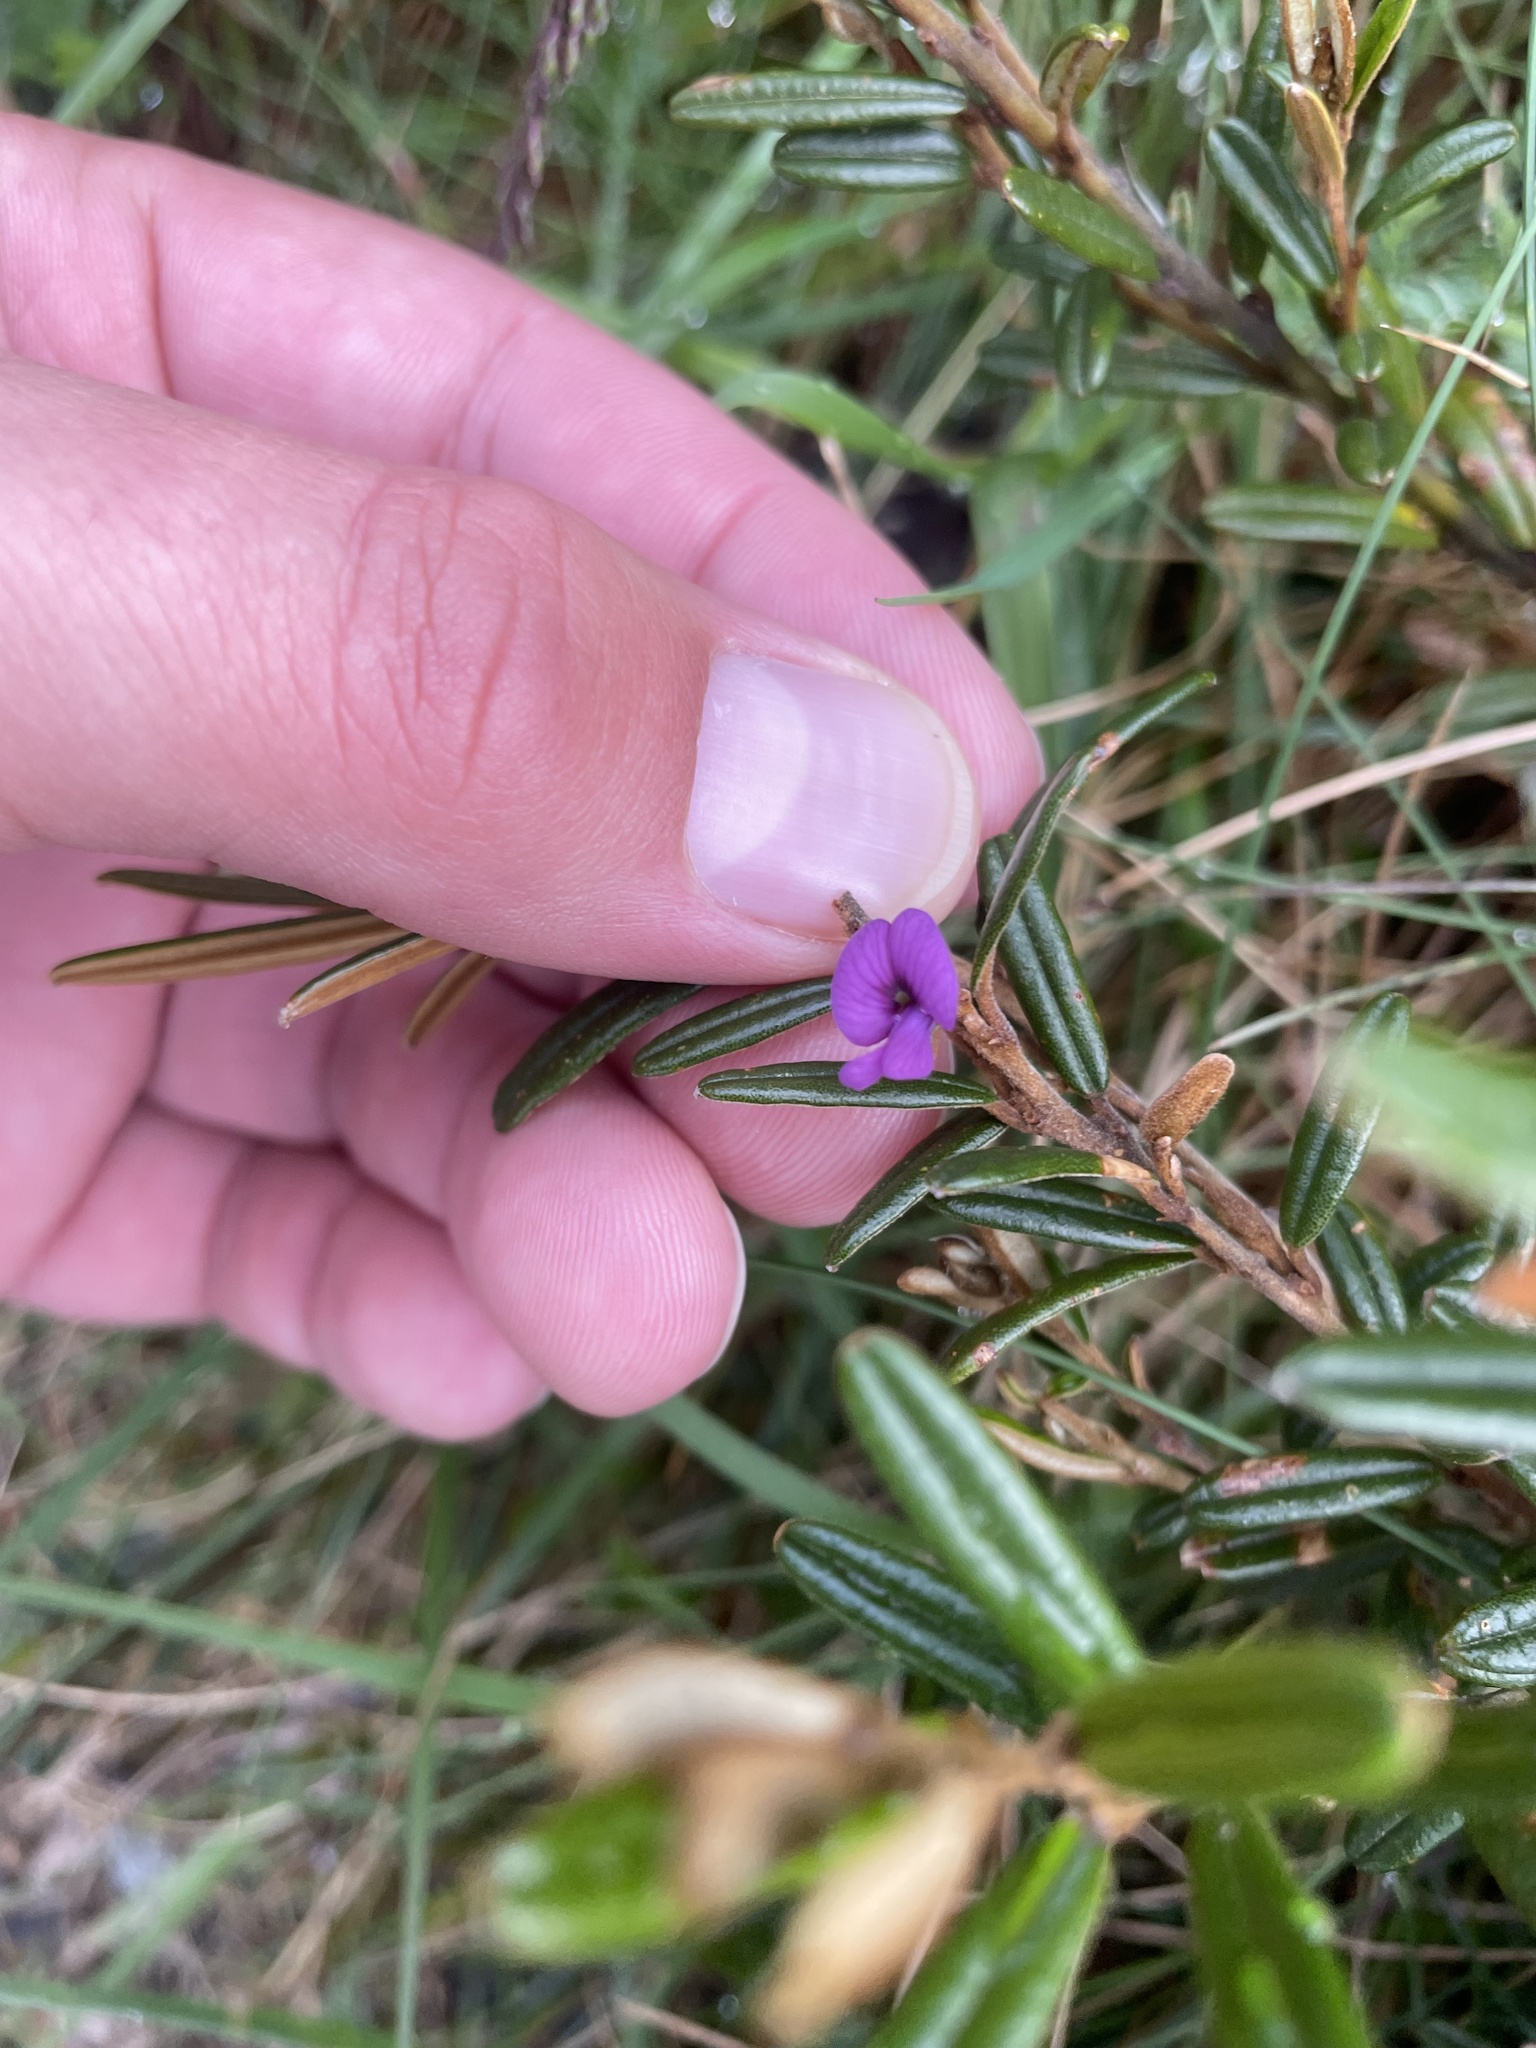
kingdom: Plantae
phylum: Tracheophyta
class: Magnoliopsida
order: Fabales
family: Fabaceae
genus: Hovea
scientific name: Hovea montana
